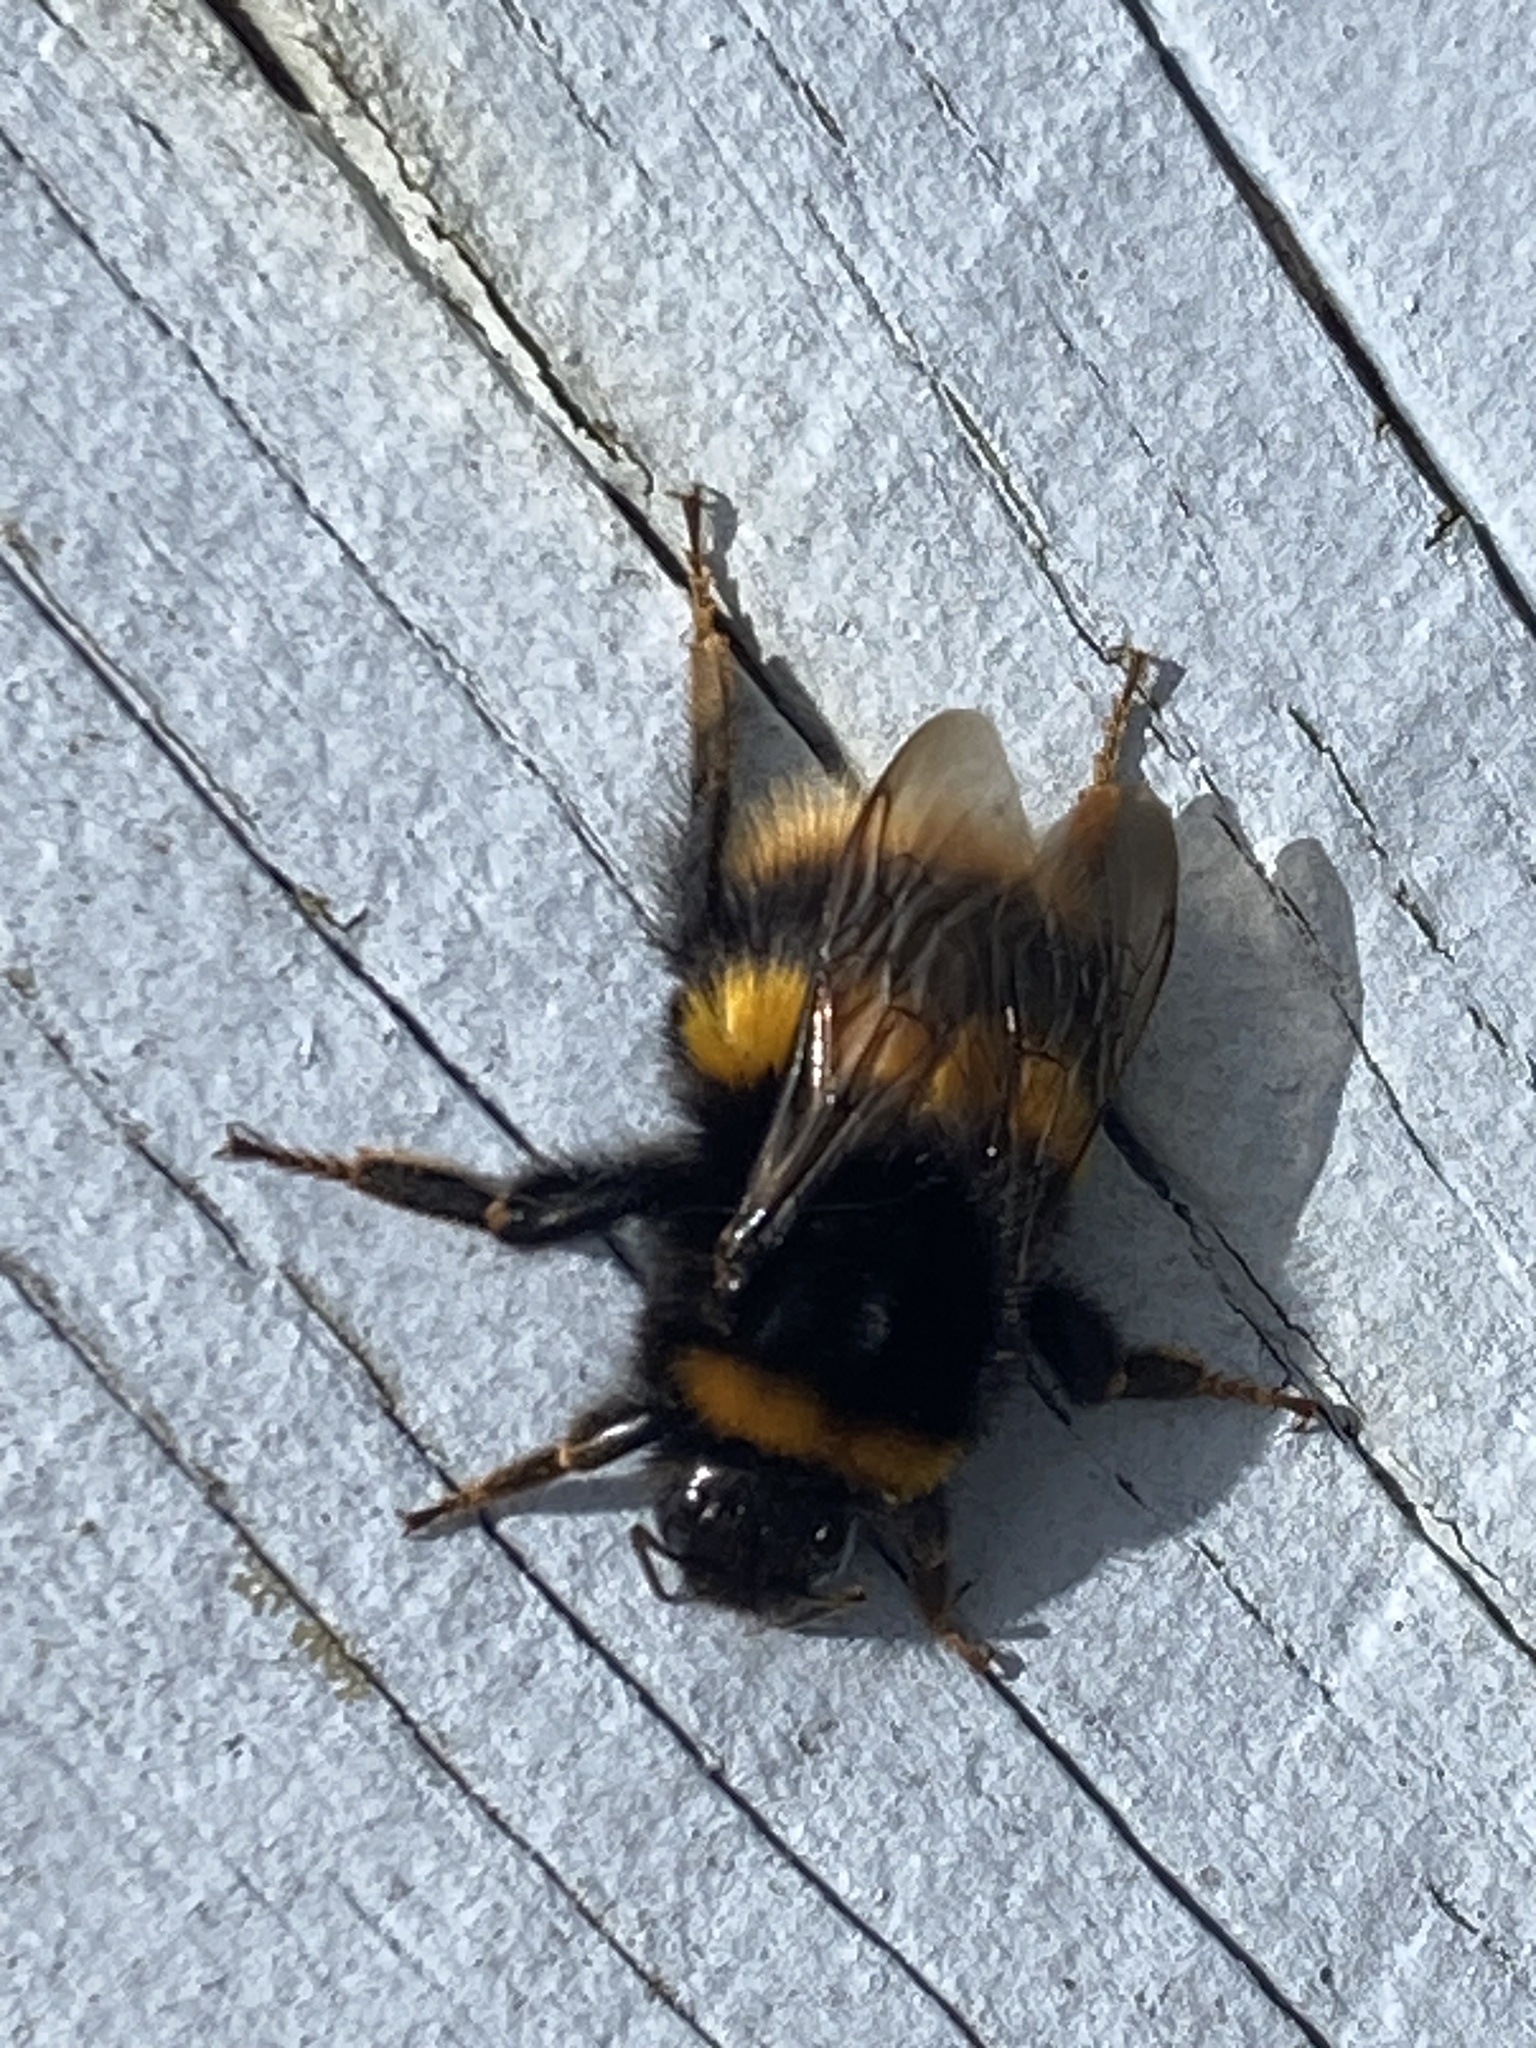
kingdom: Animalia
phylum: Arthropoda
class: Insecta
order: Hymenoptera
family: Apidae
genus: Bombus
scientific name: Bombus terrestris
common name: Buff-tailed bumblebee
